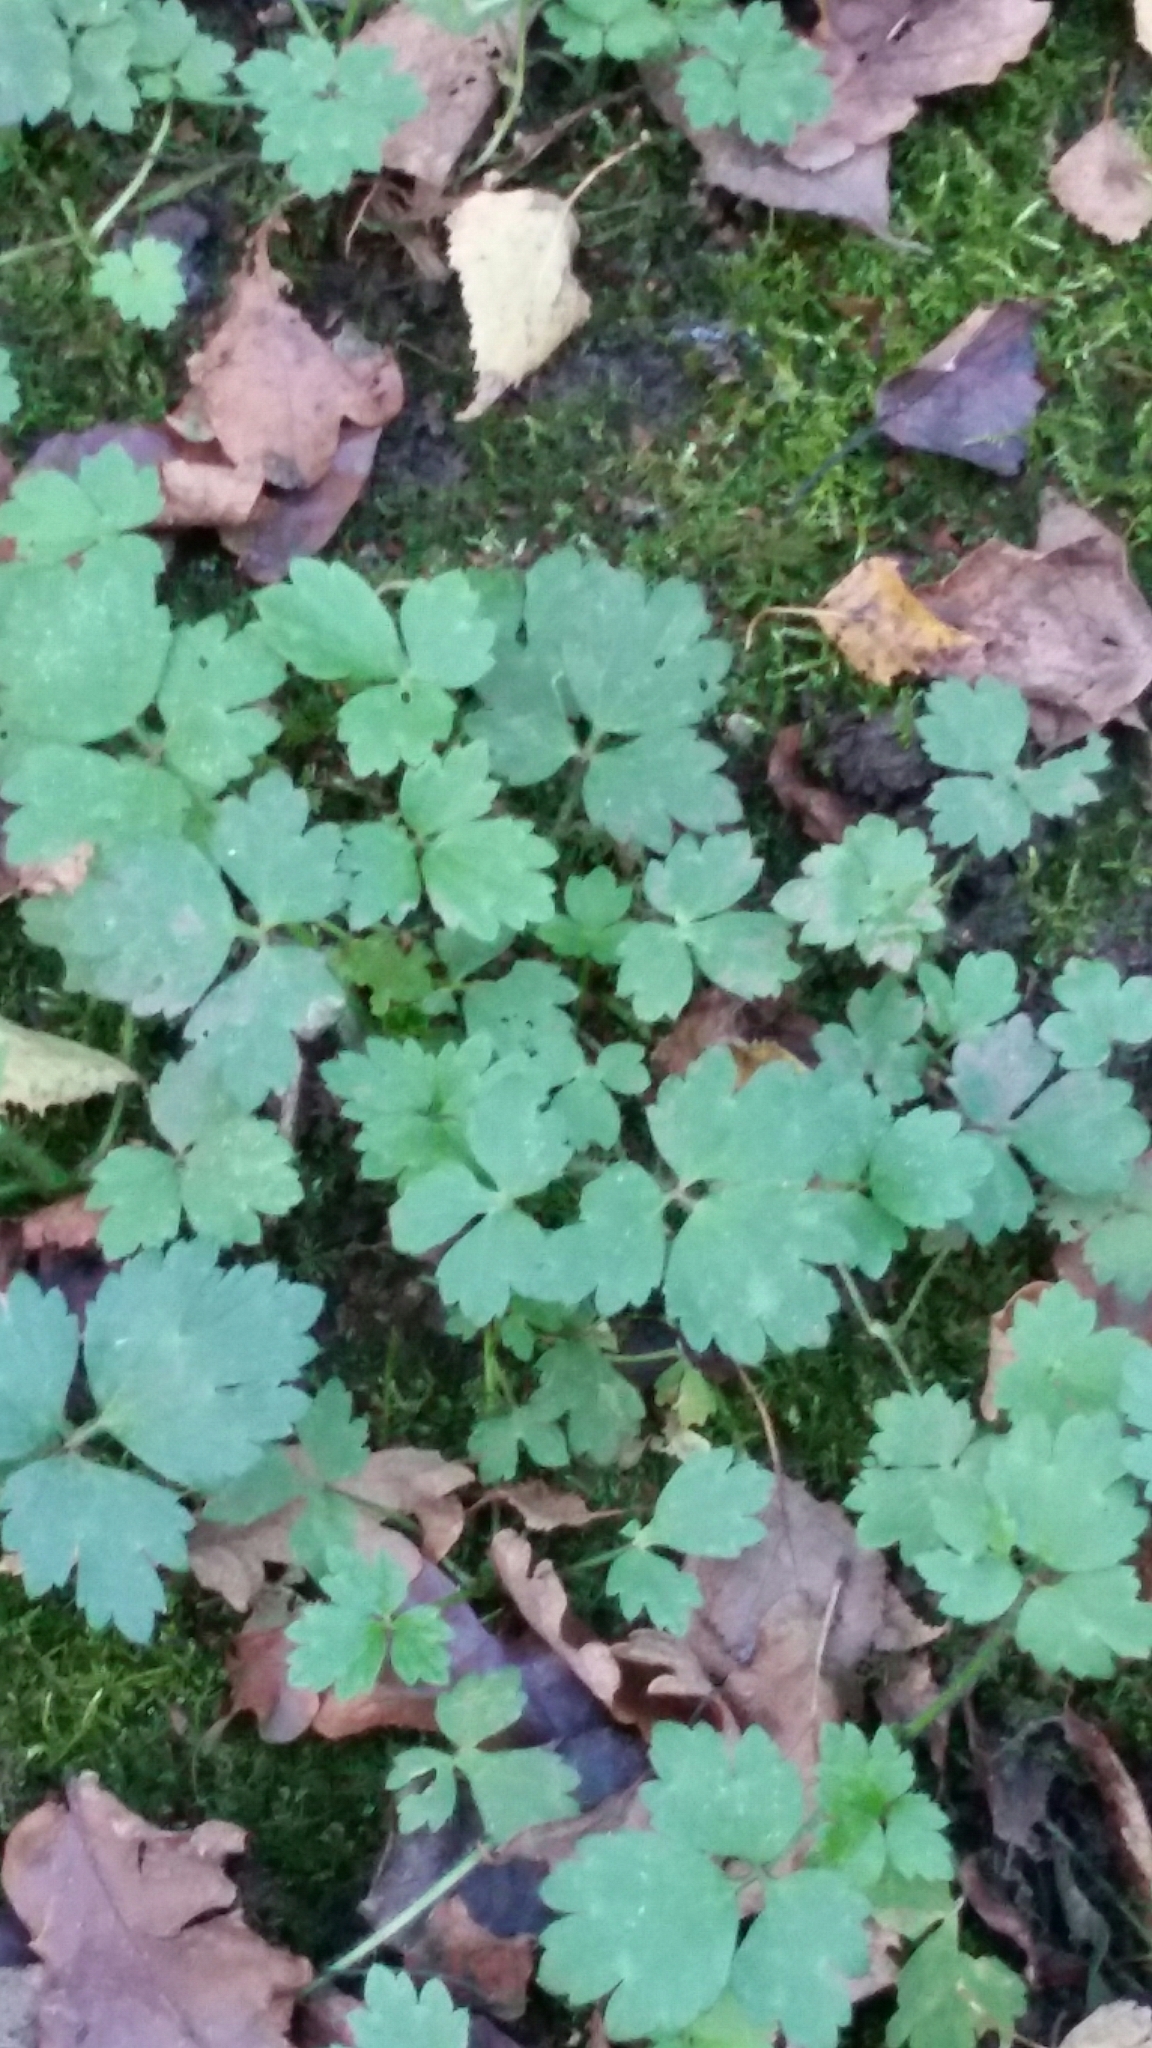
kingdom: Plantae
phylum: Tracheophyta
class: Magnoliopsida
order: Ranunculales
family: Ranunculaceae
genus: Ranunculus
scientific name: Ranunculus repens
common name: Creeping buttercup
